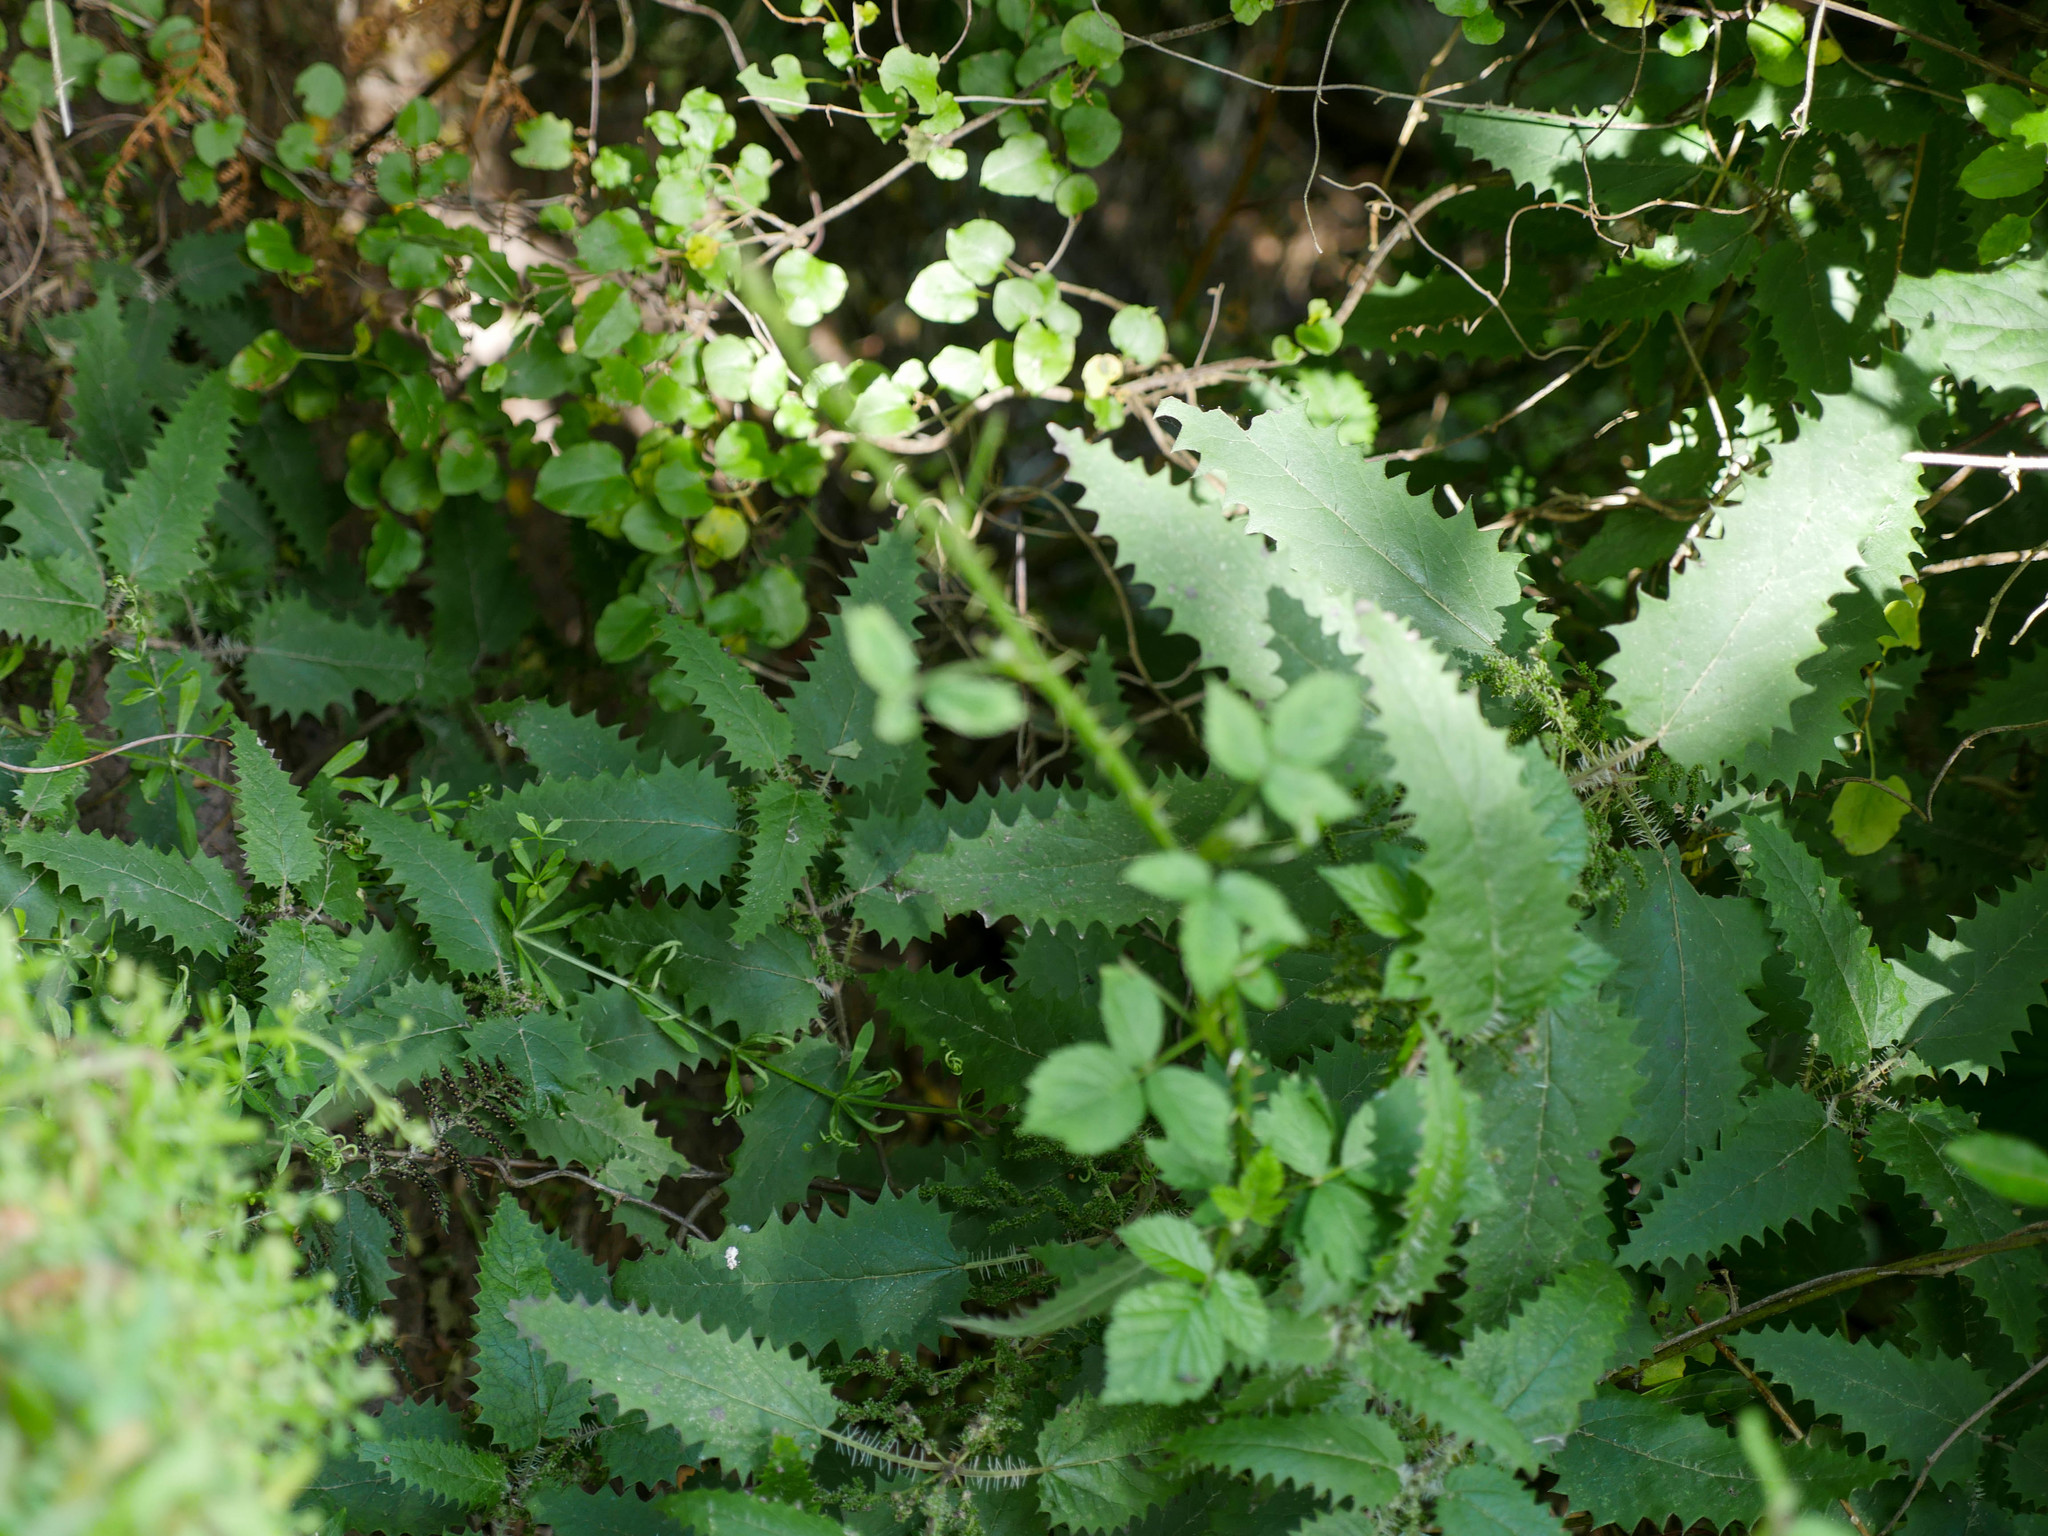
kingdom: Plantae
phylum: Tracheophyta
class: Magnoliopsida
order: Rosales
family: Urticaceae
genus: Urtica
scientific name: Urtica ferox
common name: Tree nettle
